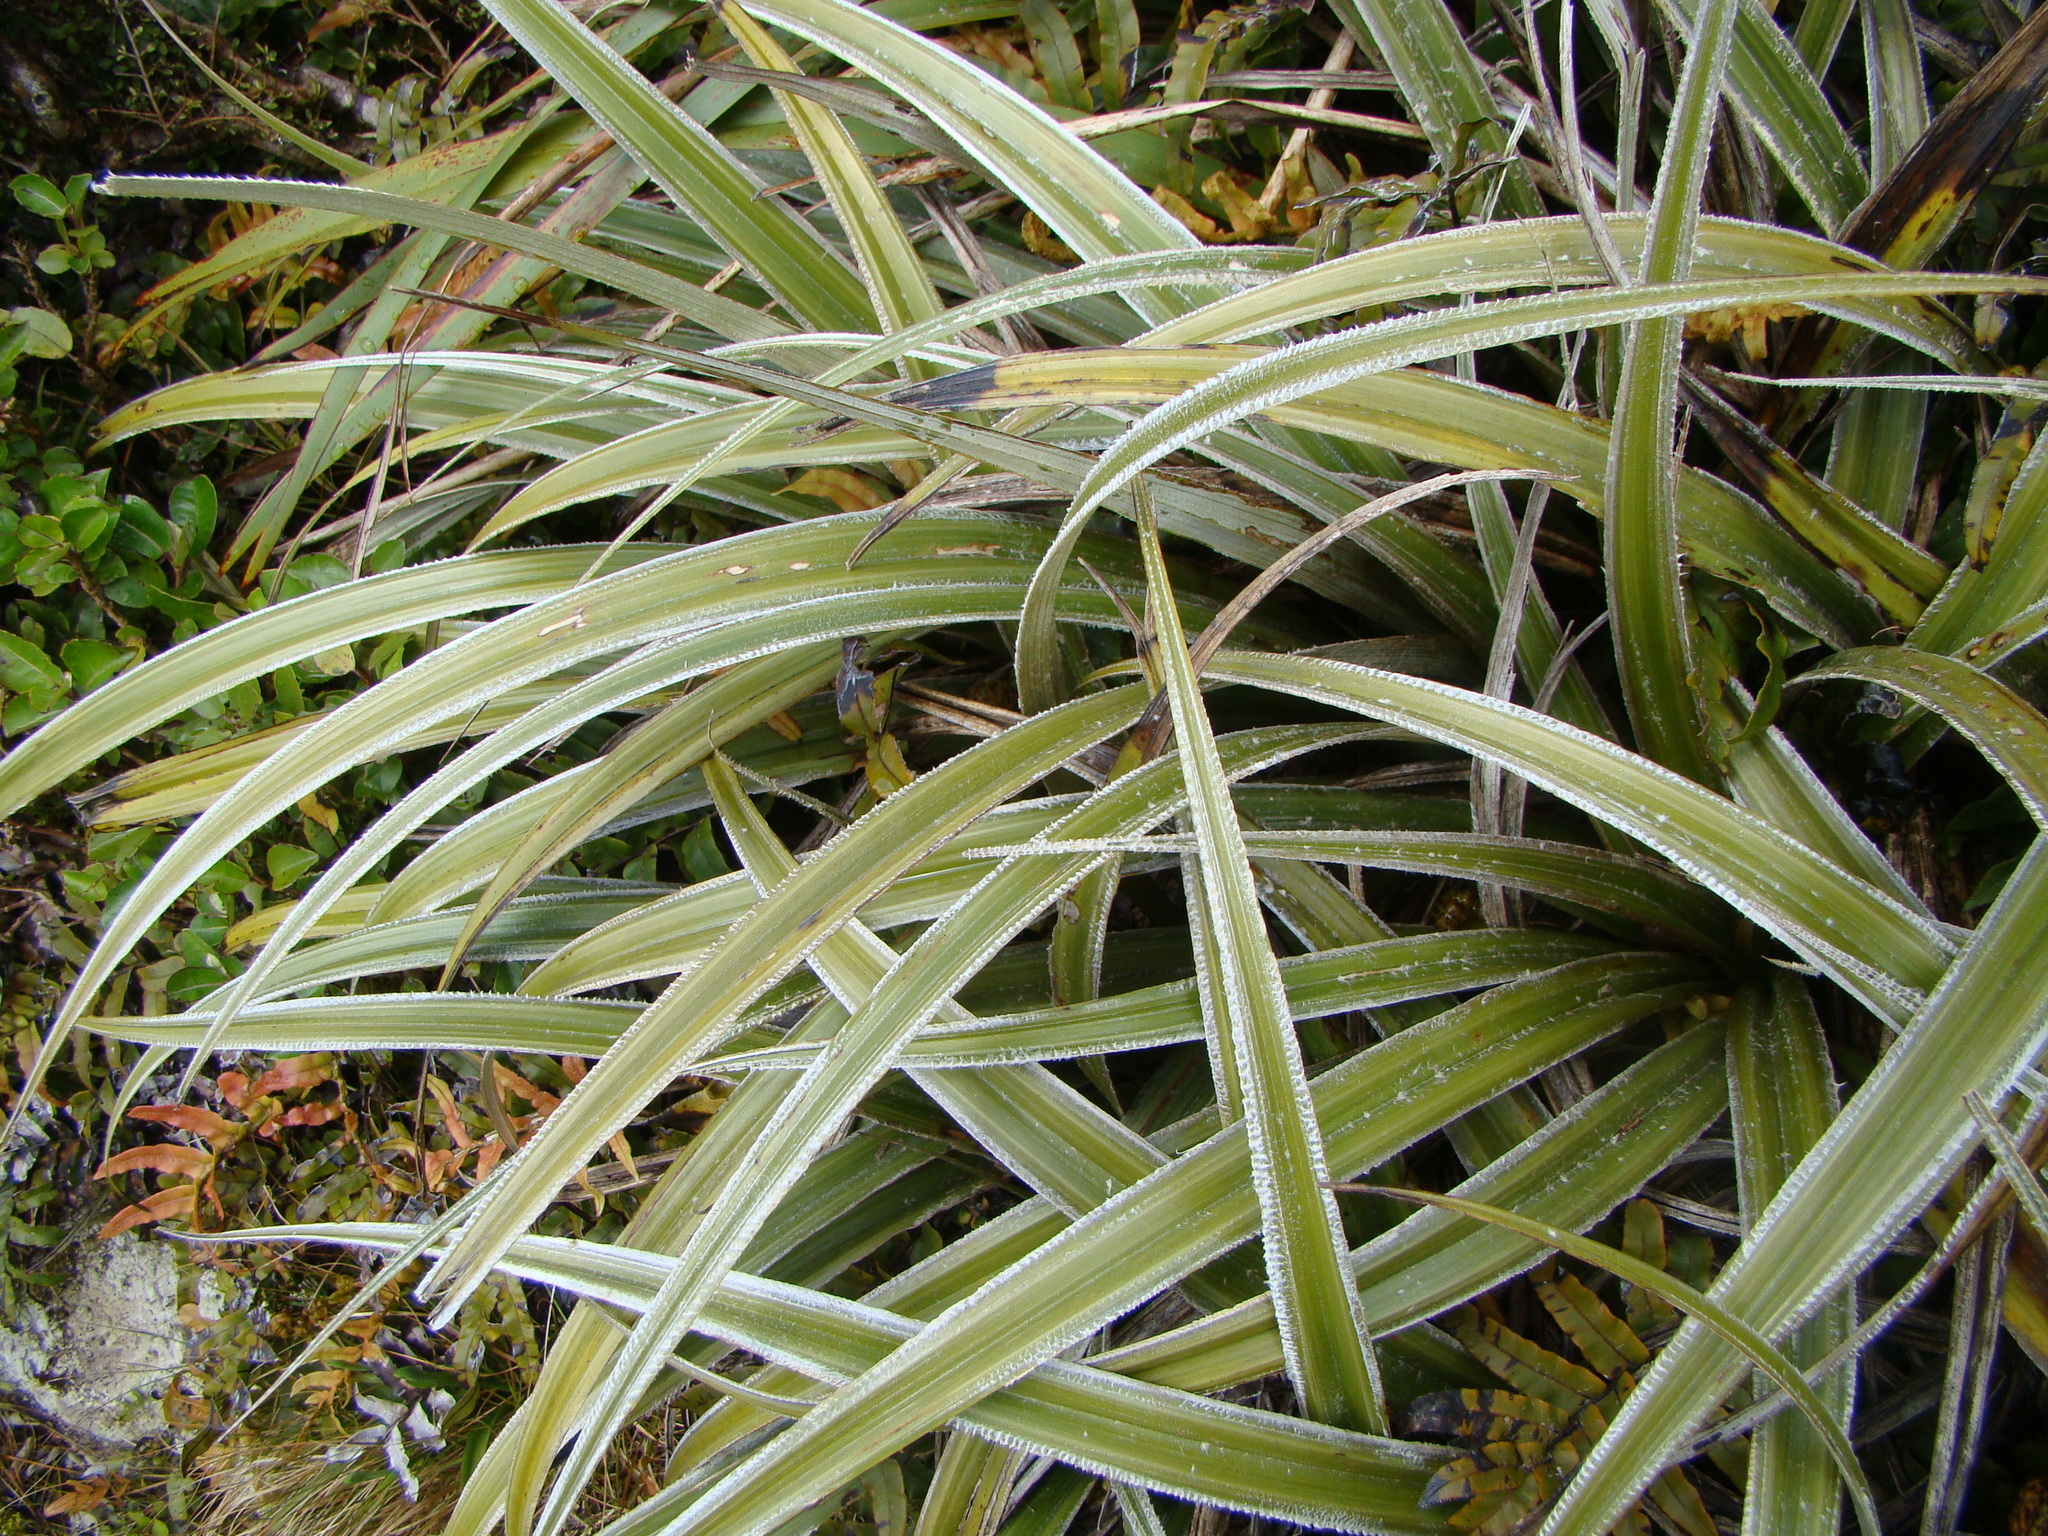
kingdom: Plantae
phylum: Tracheophyta
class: Liliopsida
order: Asparagales
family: Asteliaceae
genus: Astelia
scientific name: Astelia nervosa
